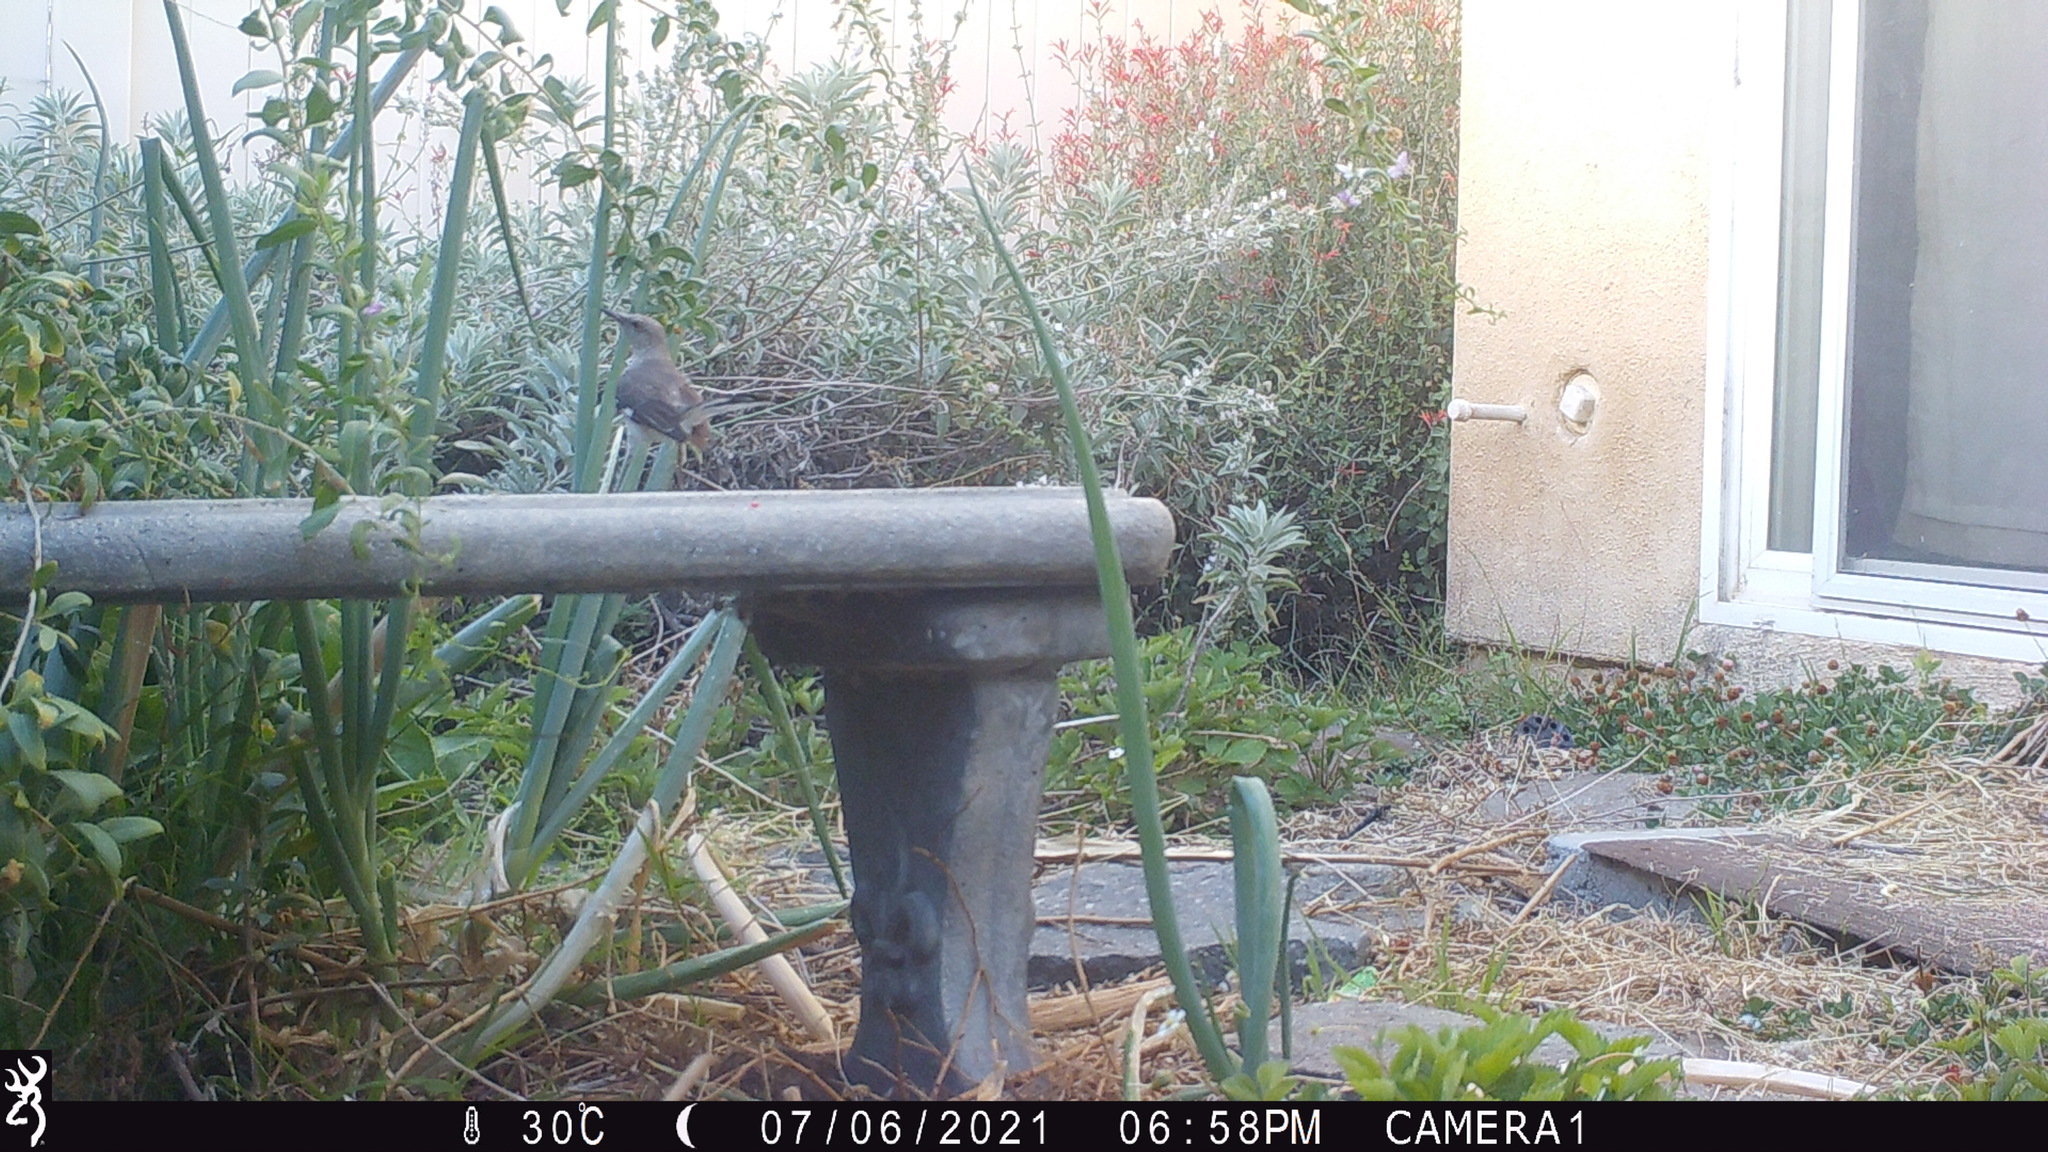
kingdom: Animalia
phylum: Chordata
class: Aves
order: Passeriformes
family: Mimidae
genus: Mimus
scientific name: Mimus polyglottos
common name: Northern mockingbird
